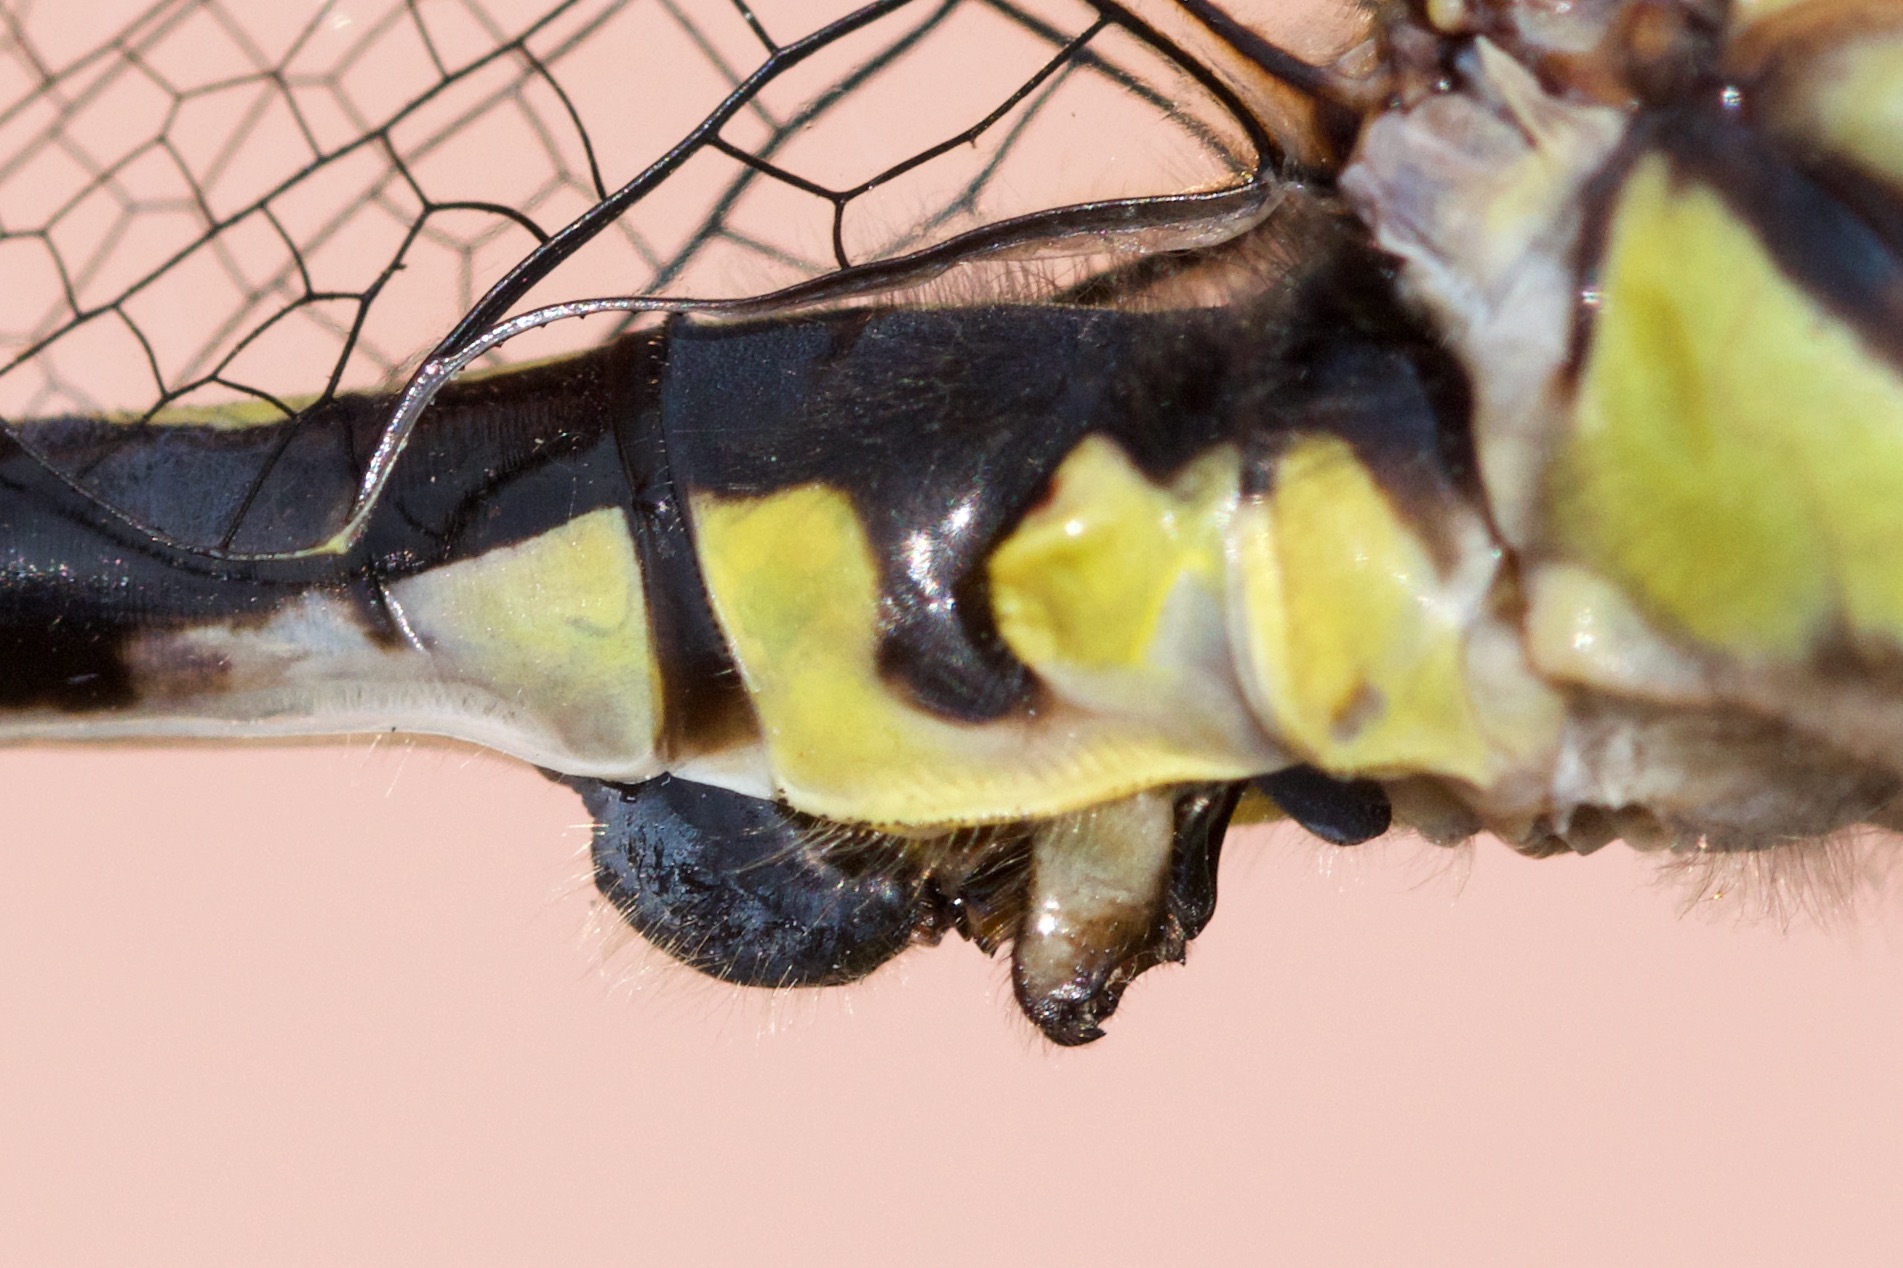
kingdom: Animalia
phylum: Arthropoda
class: Insecta
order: Odonata
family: Gomphidae
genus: Phanogomphus
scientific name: Phanogomphus graslinellus
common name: Pronghorn clubtail
